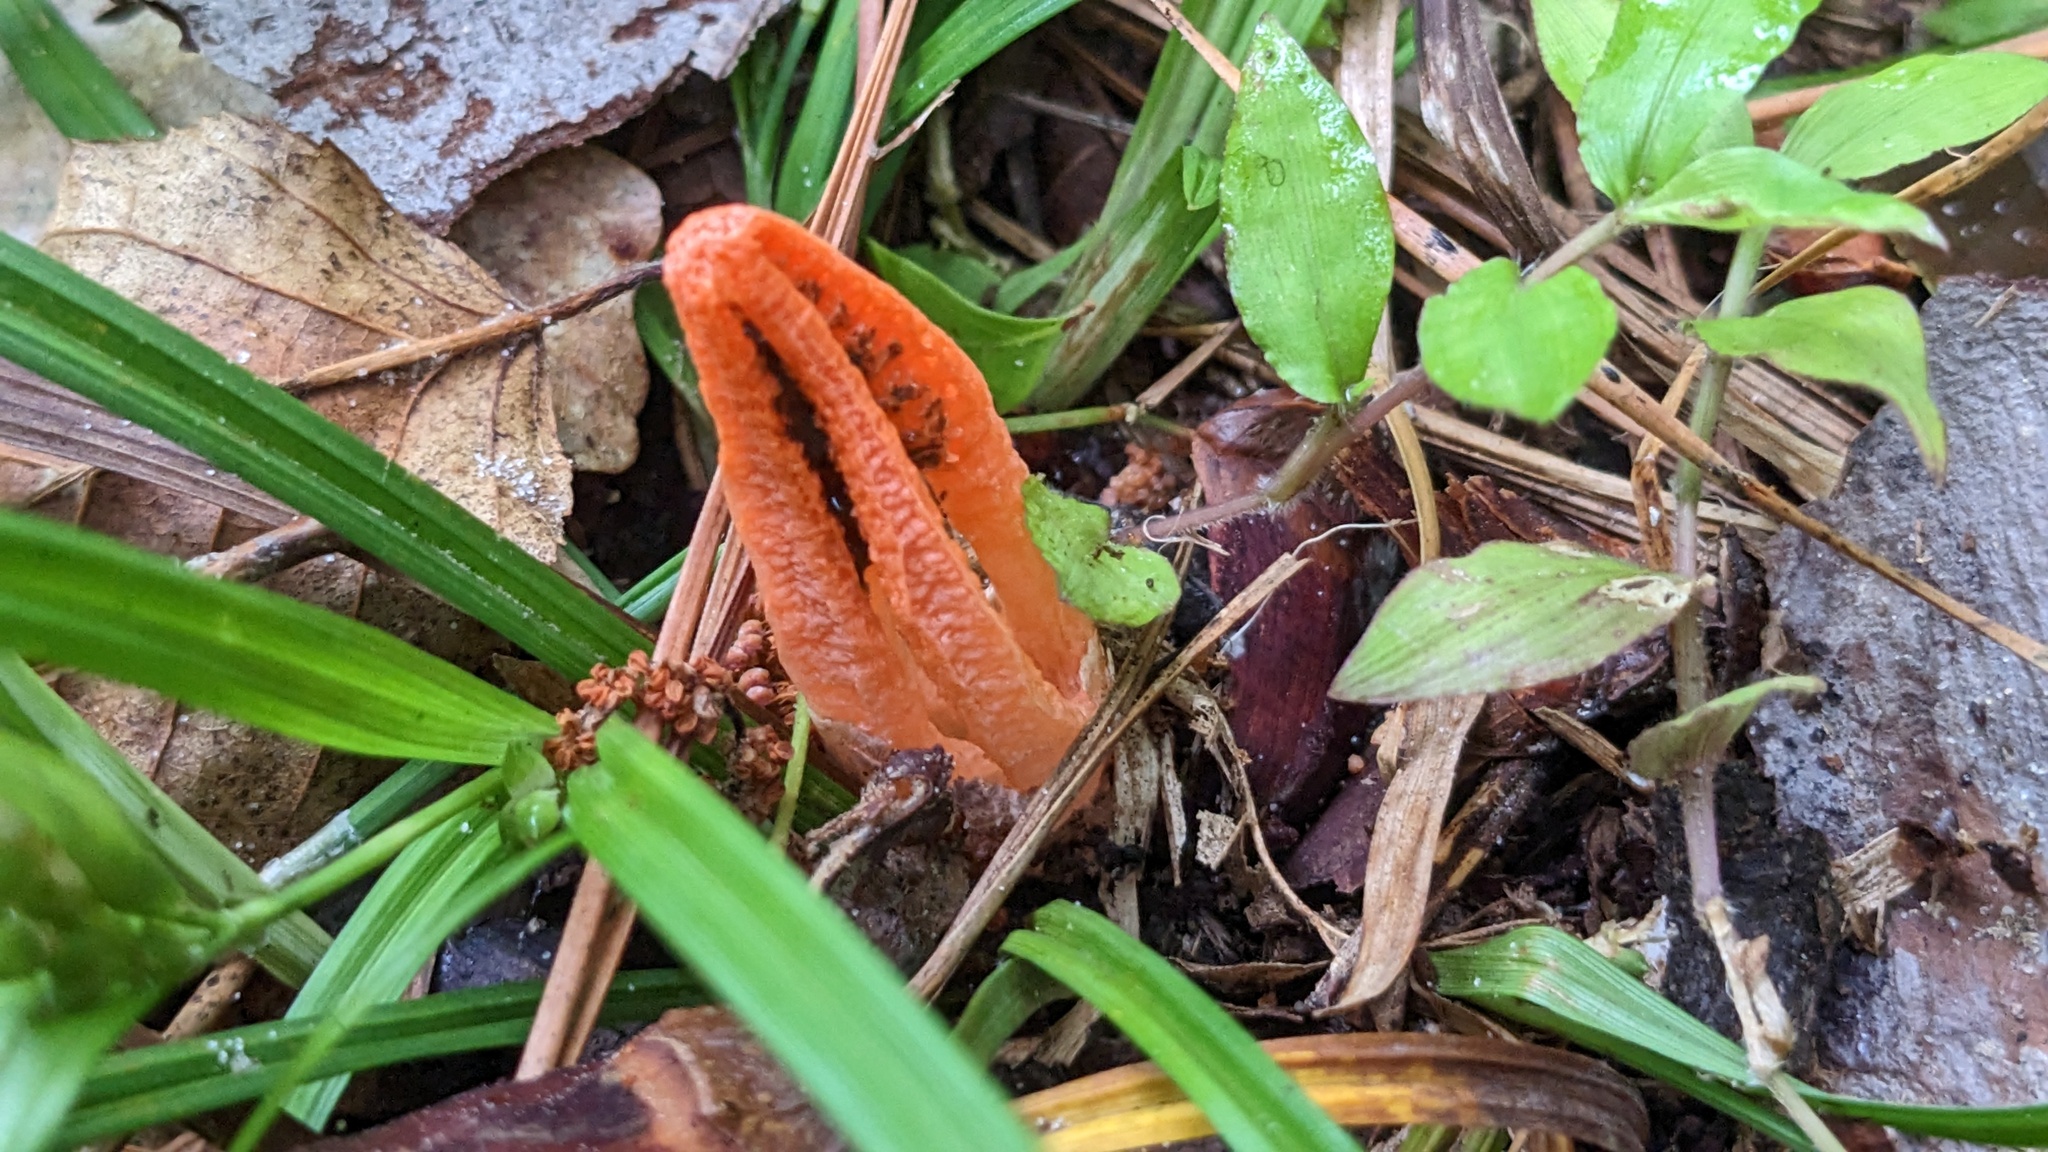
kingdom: Fungi
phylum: Basidiomycota
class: Agaricomycetes
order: Phallales
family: Phallaceae
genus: Pseudocolus
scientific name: Pseudocolus fusiformis
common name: Stinky squid
